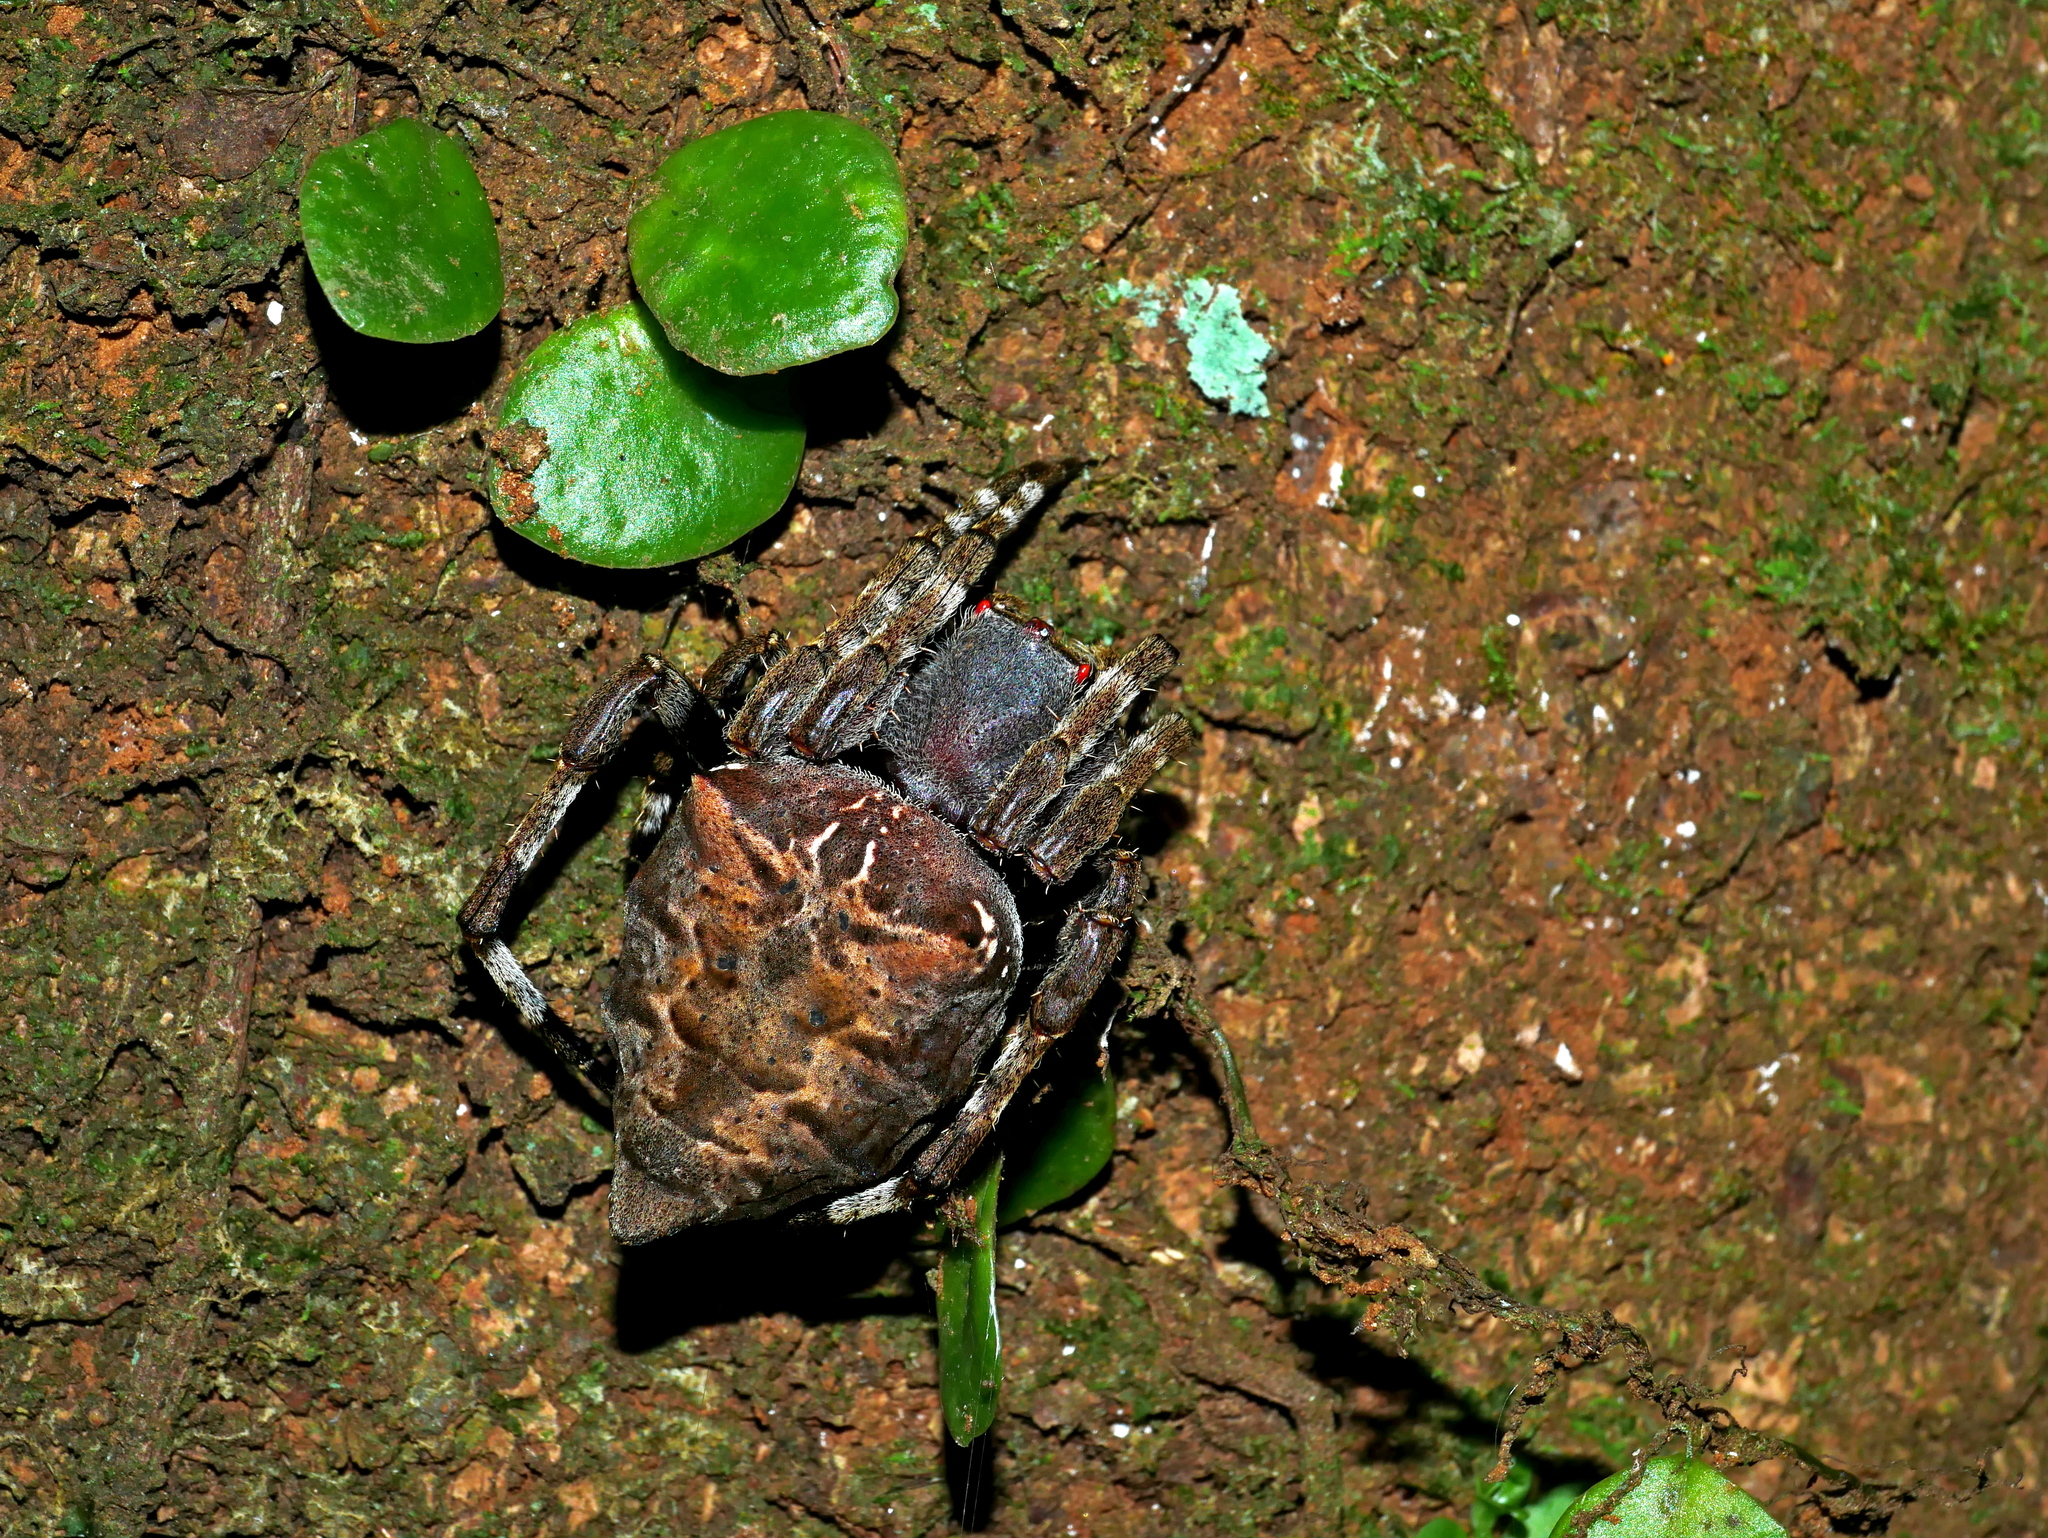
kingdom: Animalia
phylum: Arthropoda
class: Arachnida
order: Araneae
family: Araneidae
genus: Parawixia
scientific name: Parawixia dehaani
